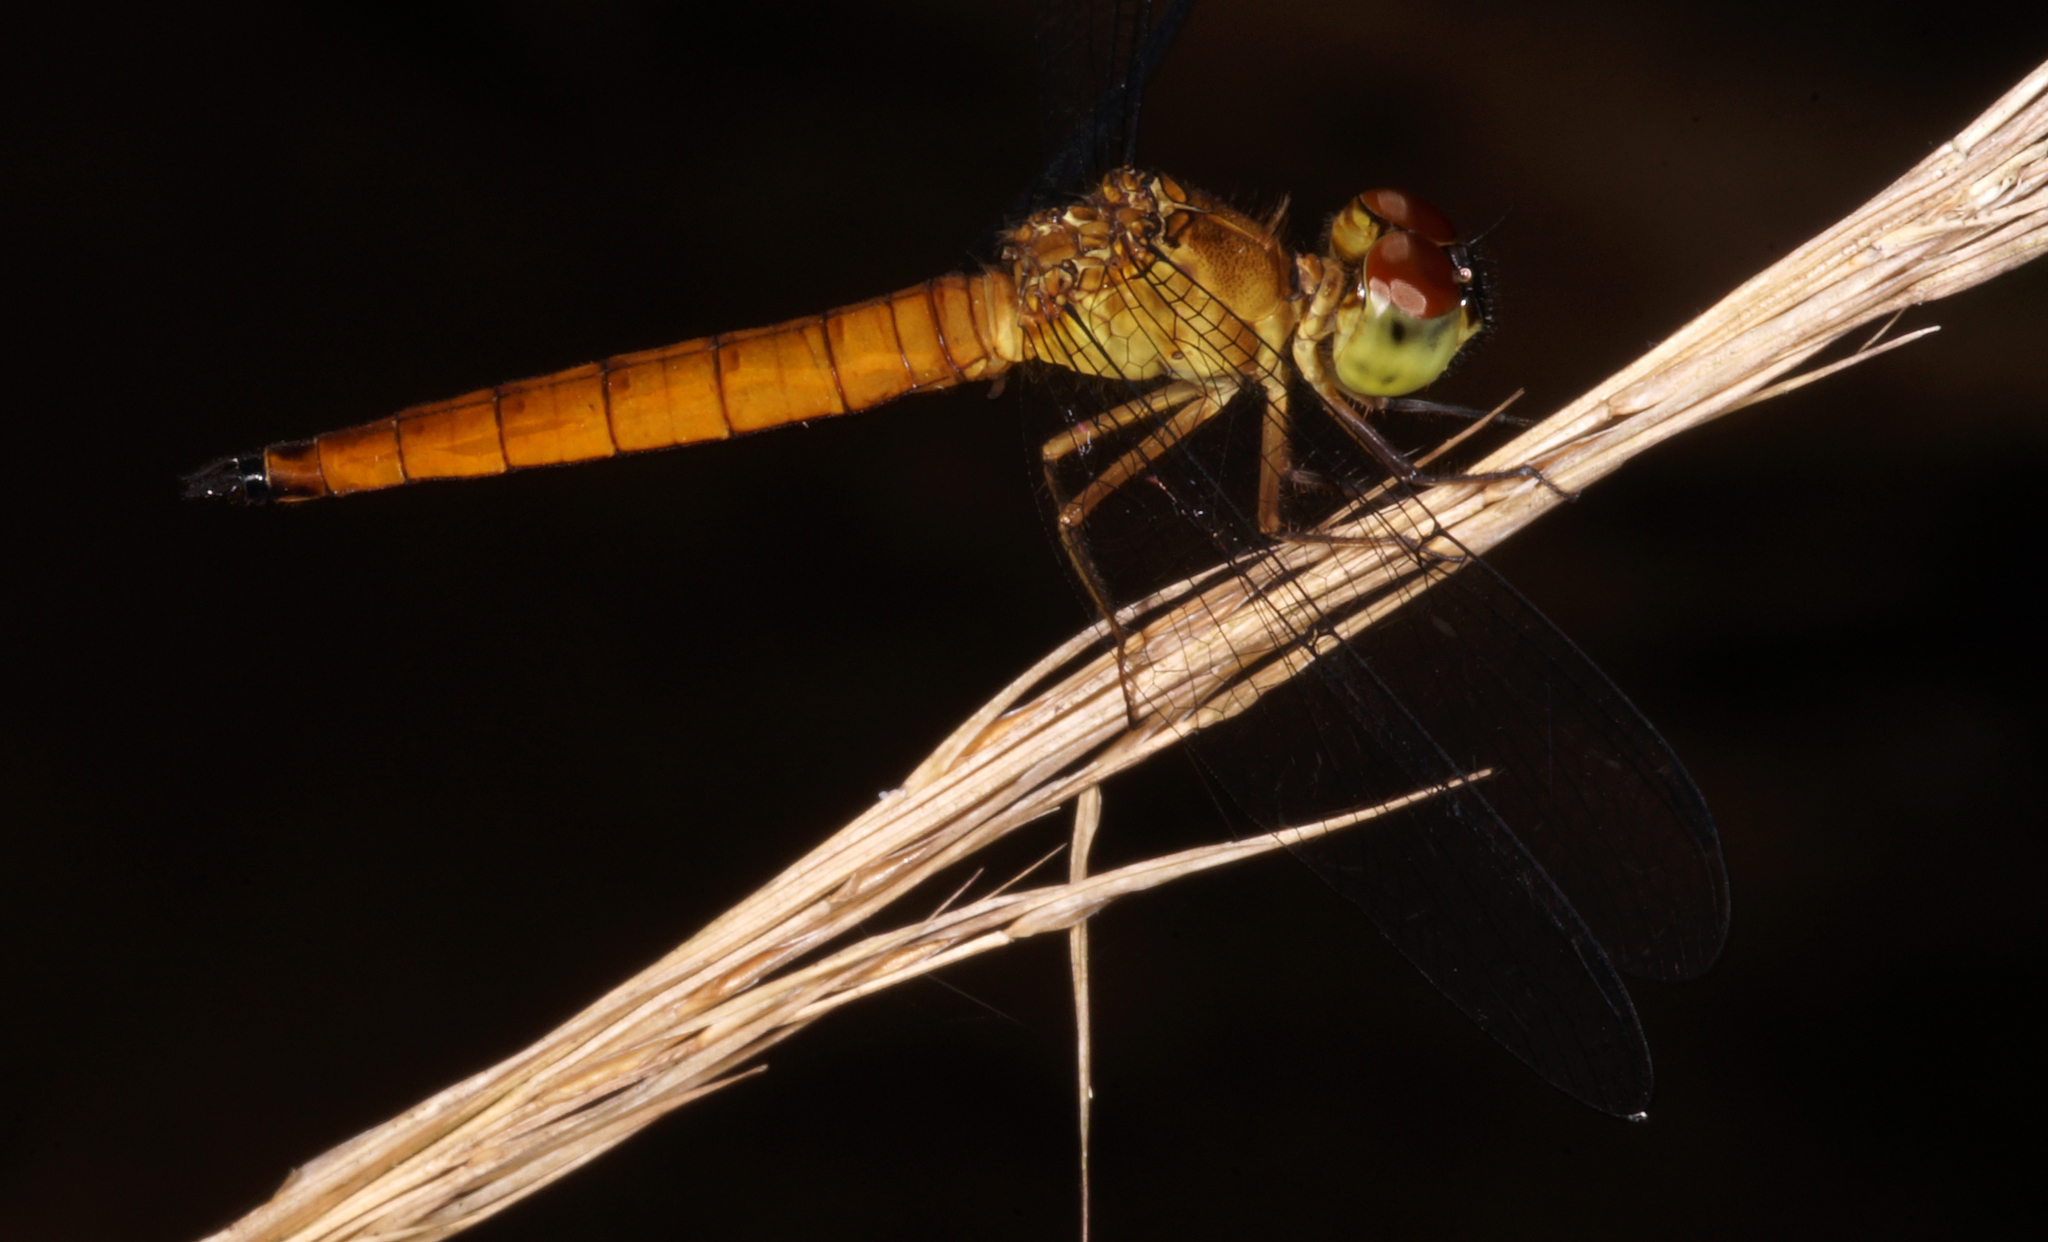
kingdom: Animalia
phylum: Arthropoda
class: Insecta
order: Odonata
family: Libellulidae
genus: Orchithemis
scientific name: Orchithemis pulcherrima
